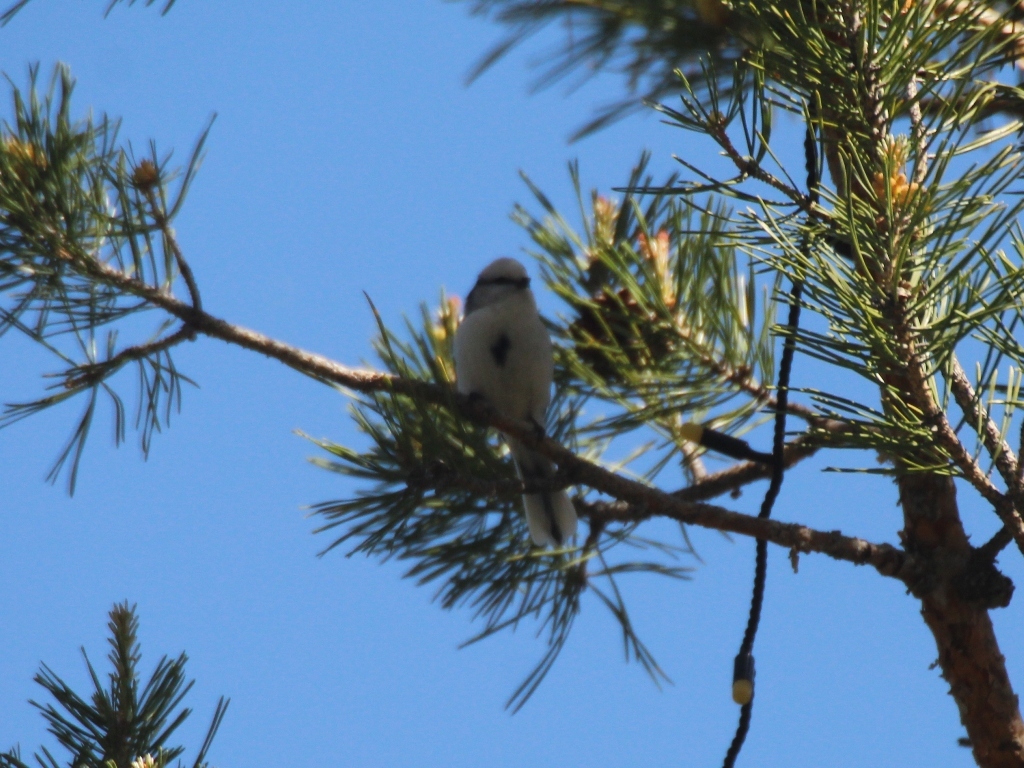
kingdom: Animalia
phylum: Chordata
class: Aves
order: Passeriformes
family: Paridae
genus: Cyanistes
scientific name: Cyanistes cyanus
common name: Azure tit
